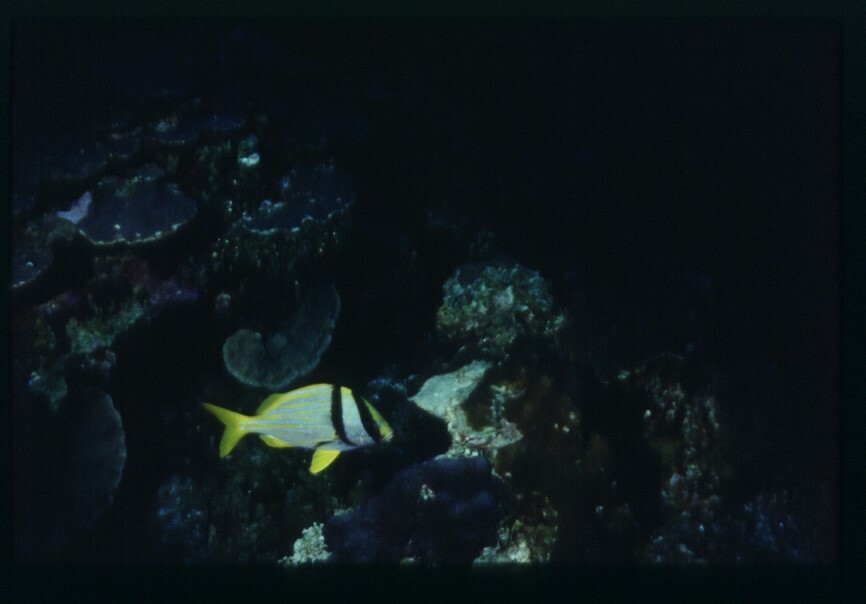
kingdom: Animalia
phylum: Chordata
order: Perciformes
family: Haemulidae
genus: Anisotremus
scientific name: Anisotremus virginicus
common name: Porkfish
